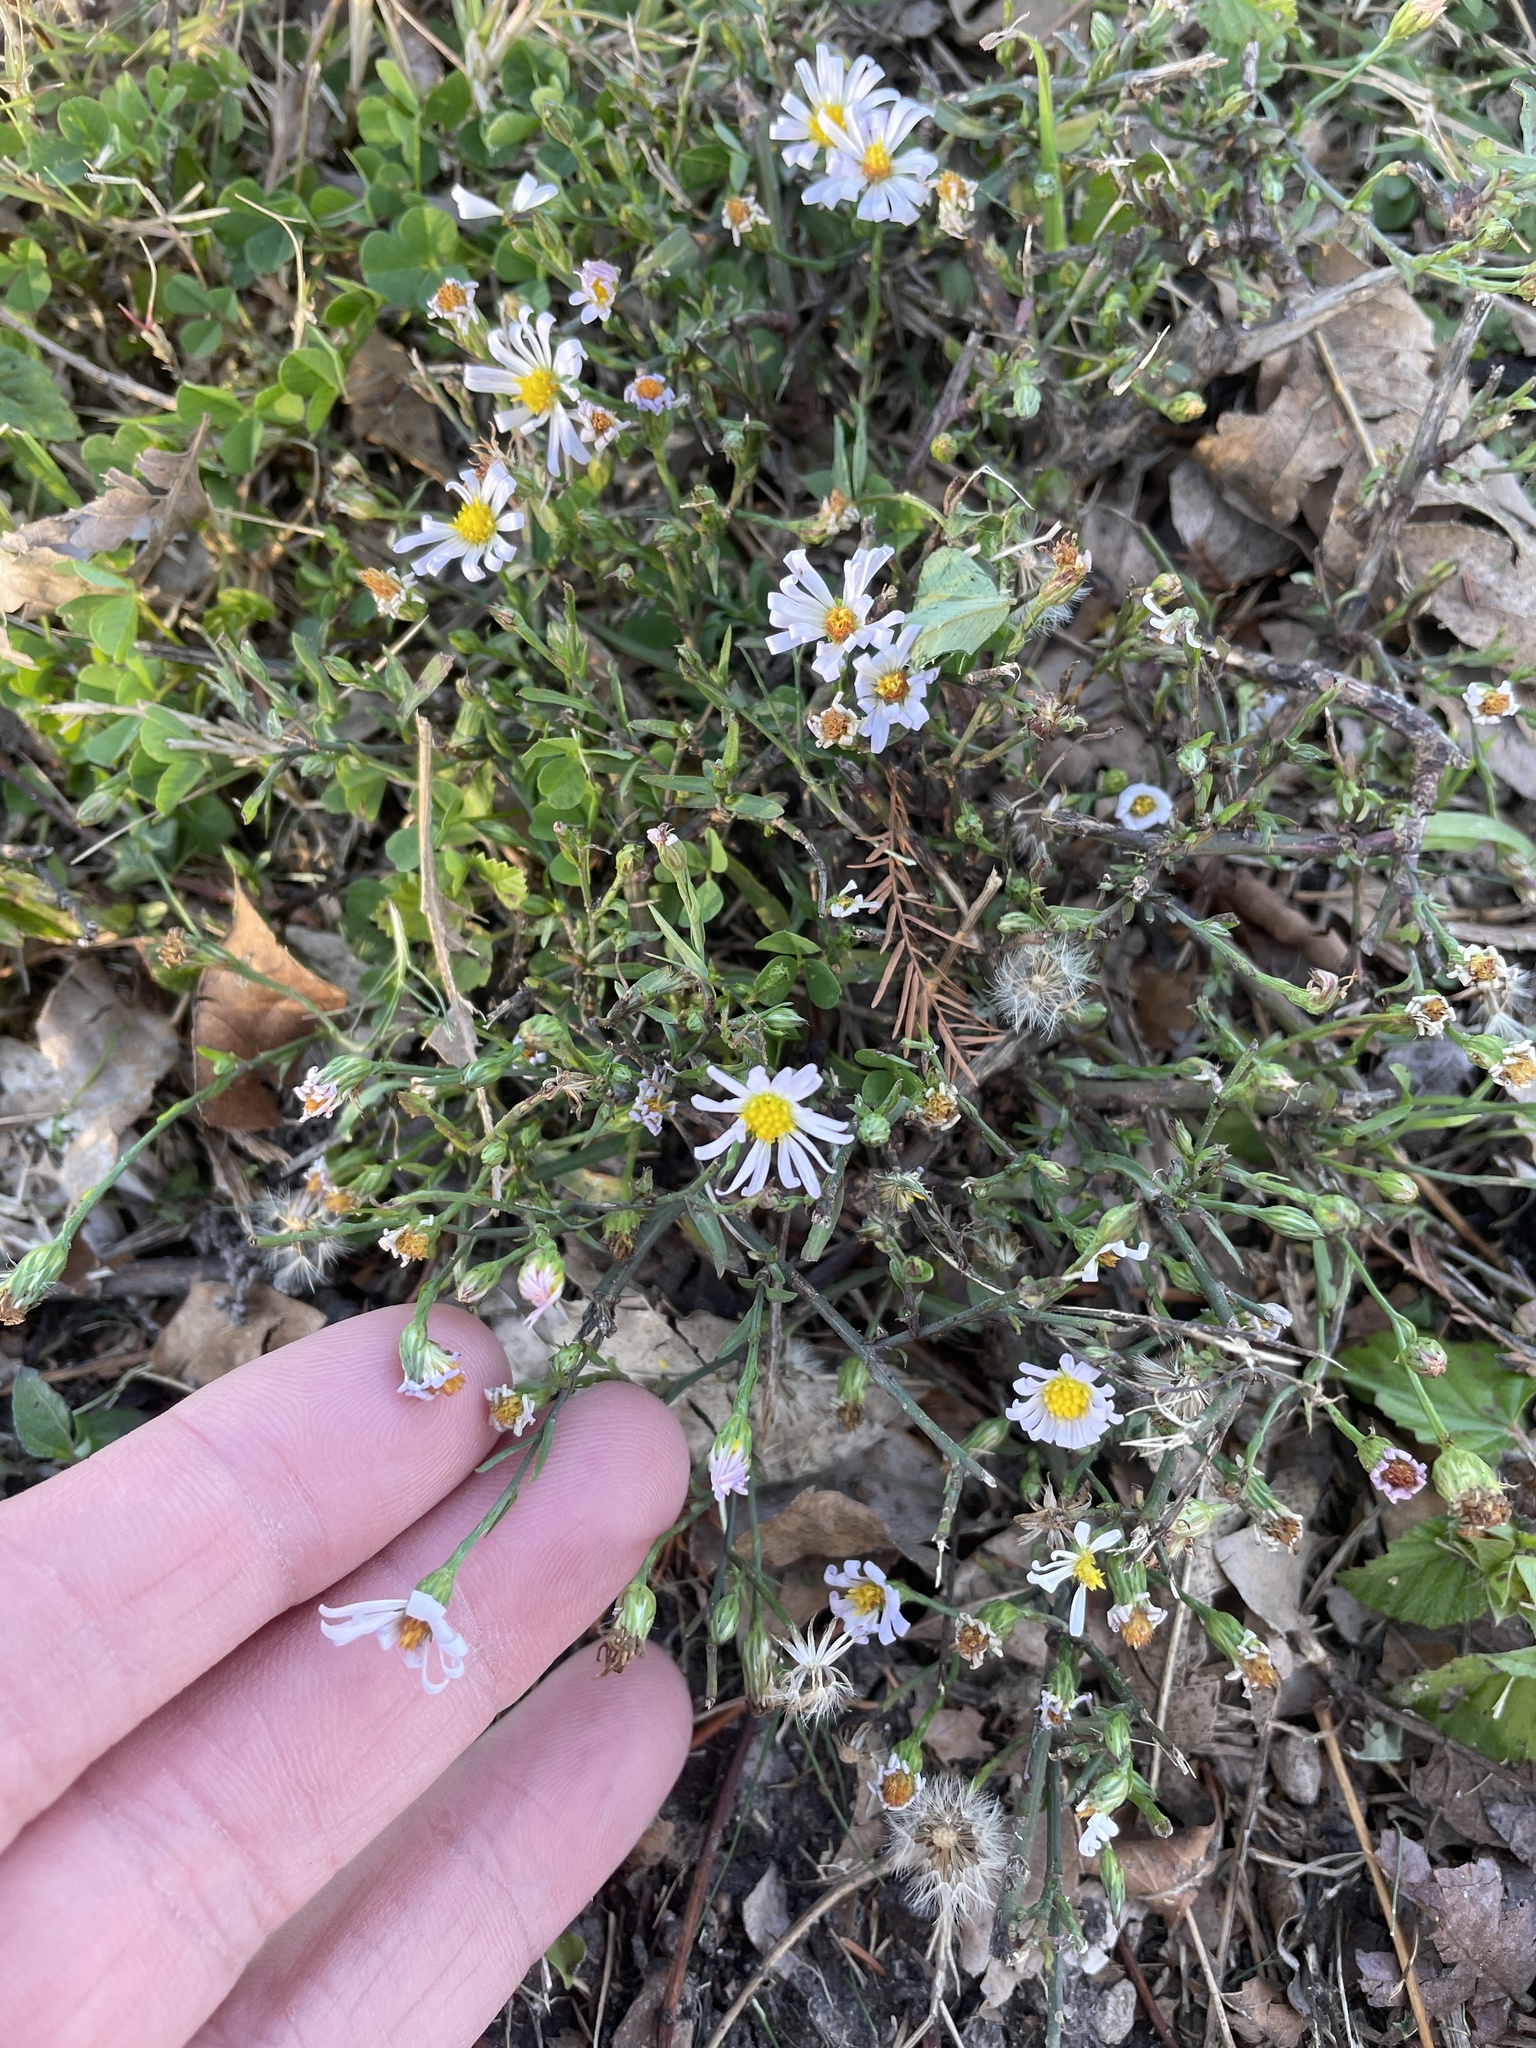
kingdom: Plantae
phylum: Tracheophyta
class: Magnoliopsida
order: Asterales
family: Asteraceae
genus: Symphyotrichum
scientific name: Symphyotrichum divaricatum
